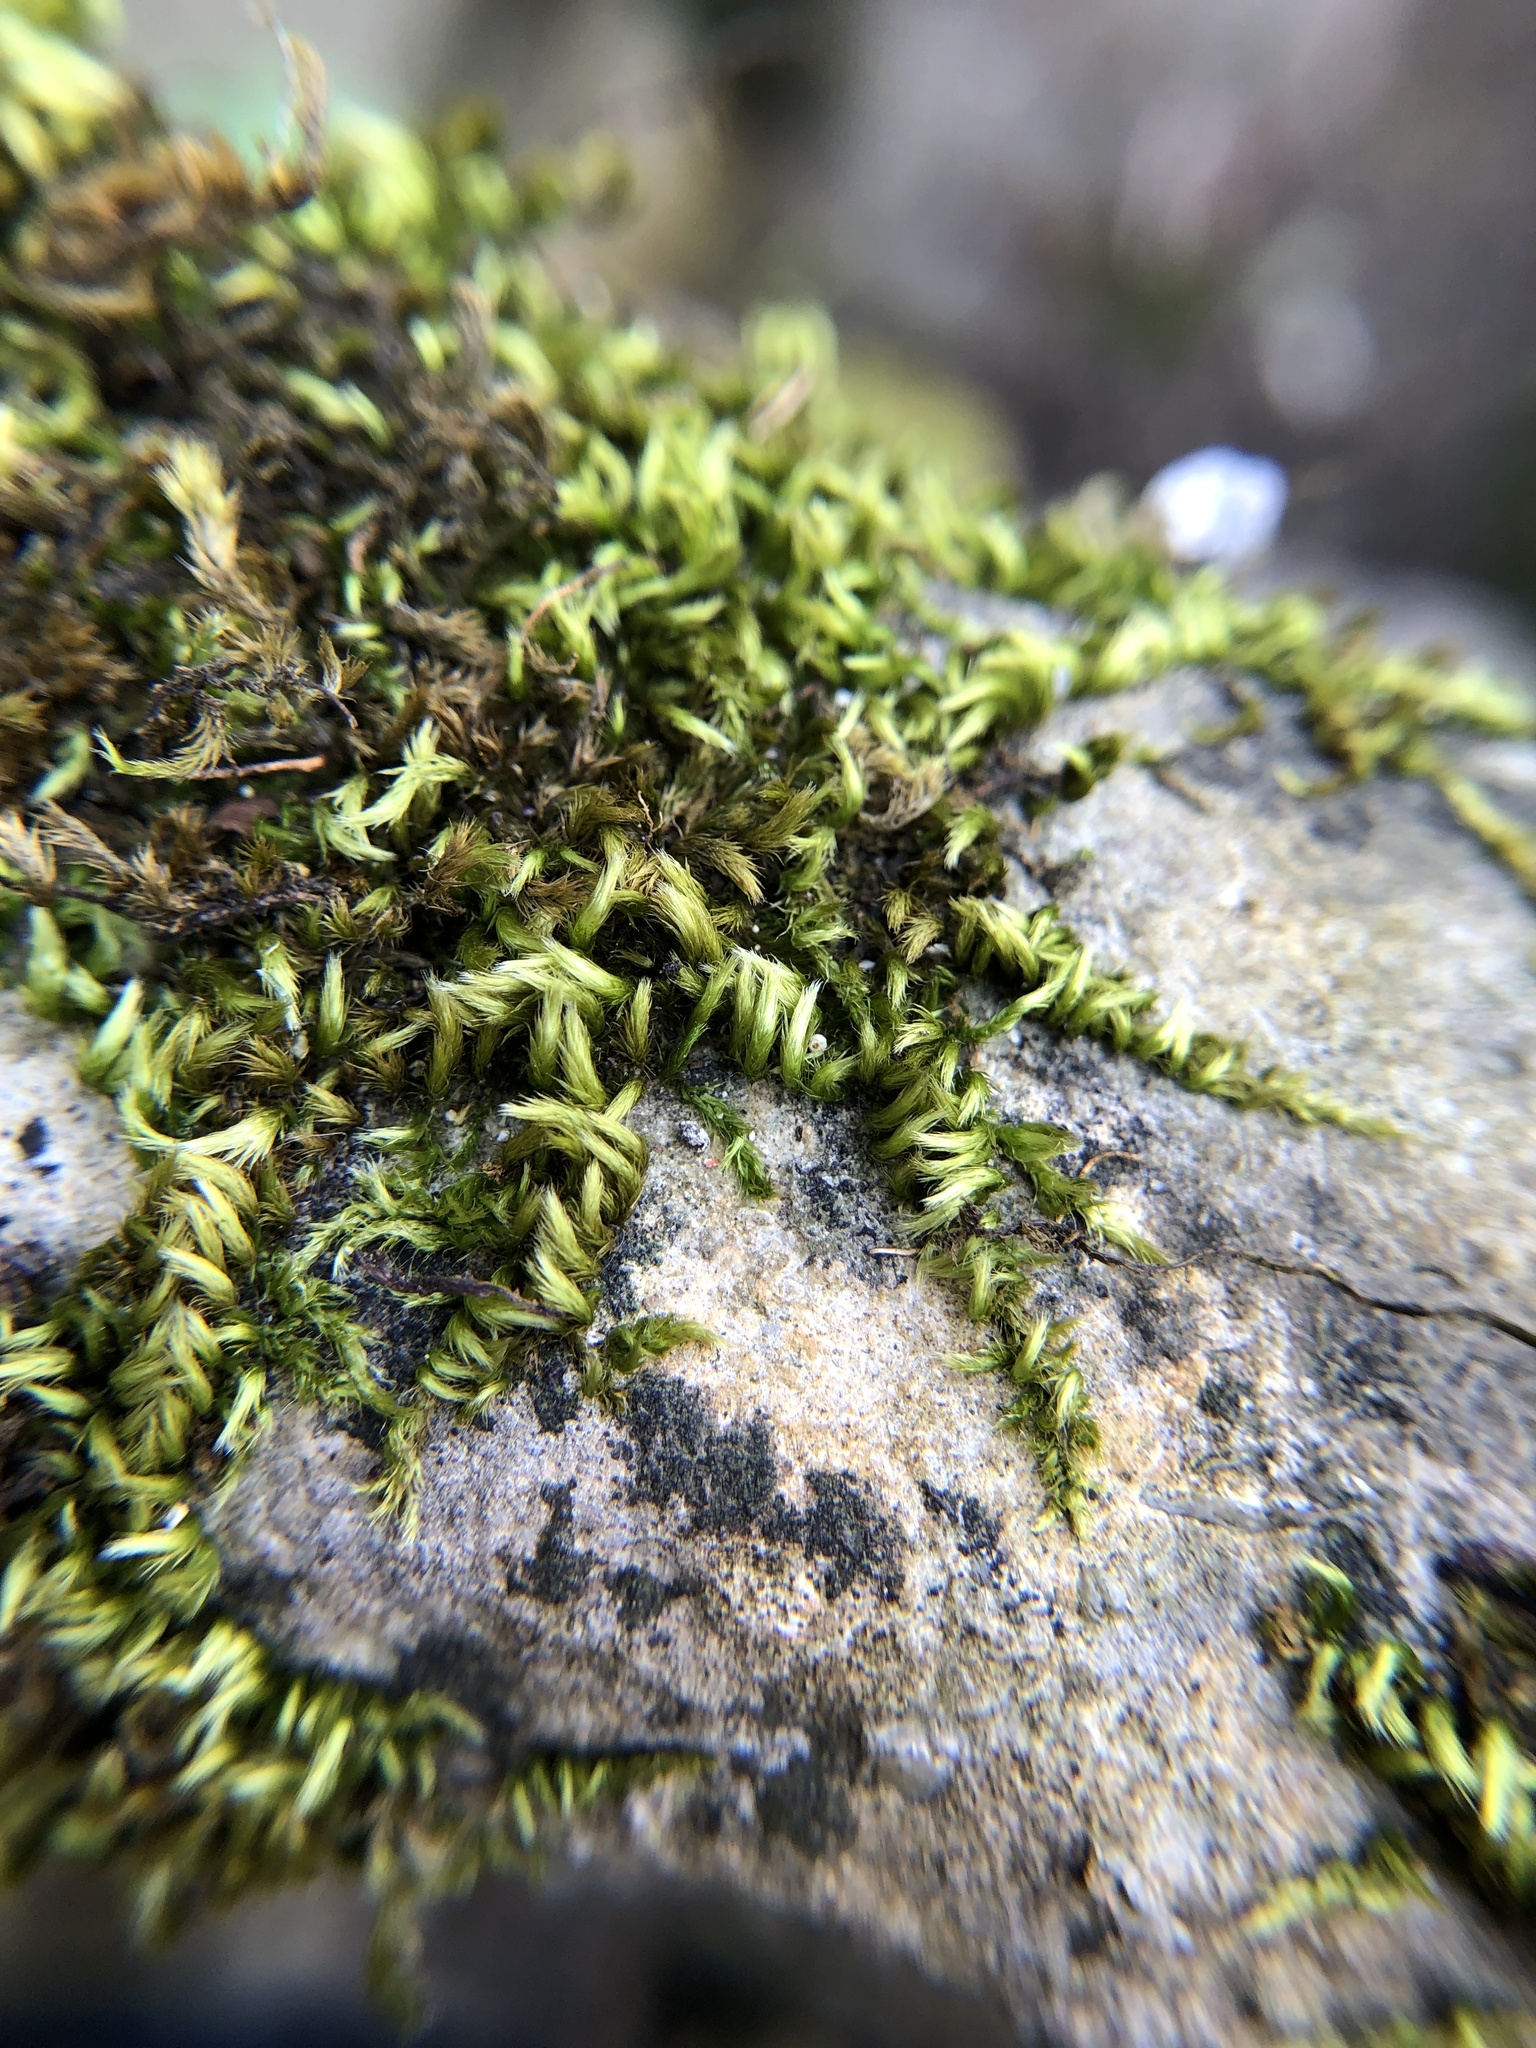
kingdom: Plantae
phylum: Bryophyta
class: Bryopsida
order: Hypnales
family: Brachytheciaceae
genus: Homalothecium
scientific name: Homalothecium sericeum
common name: Silky wall feather-moss
